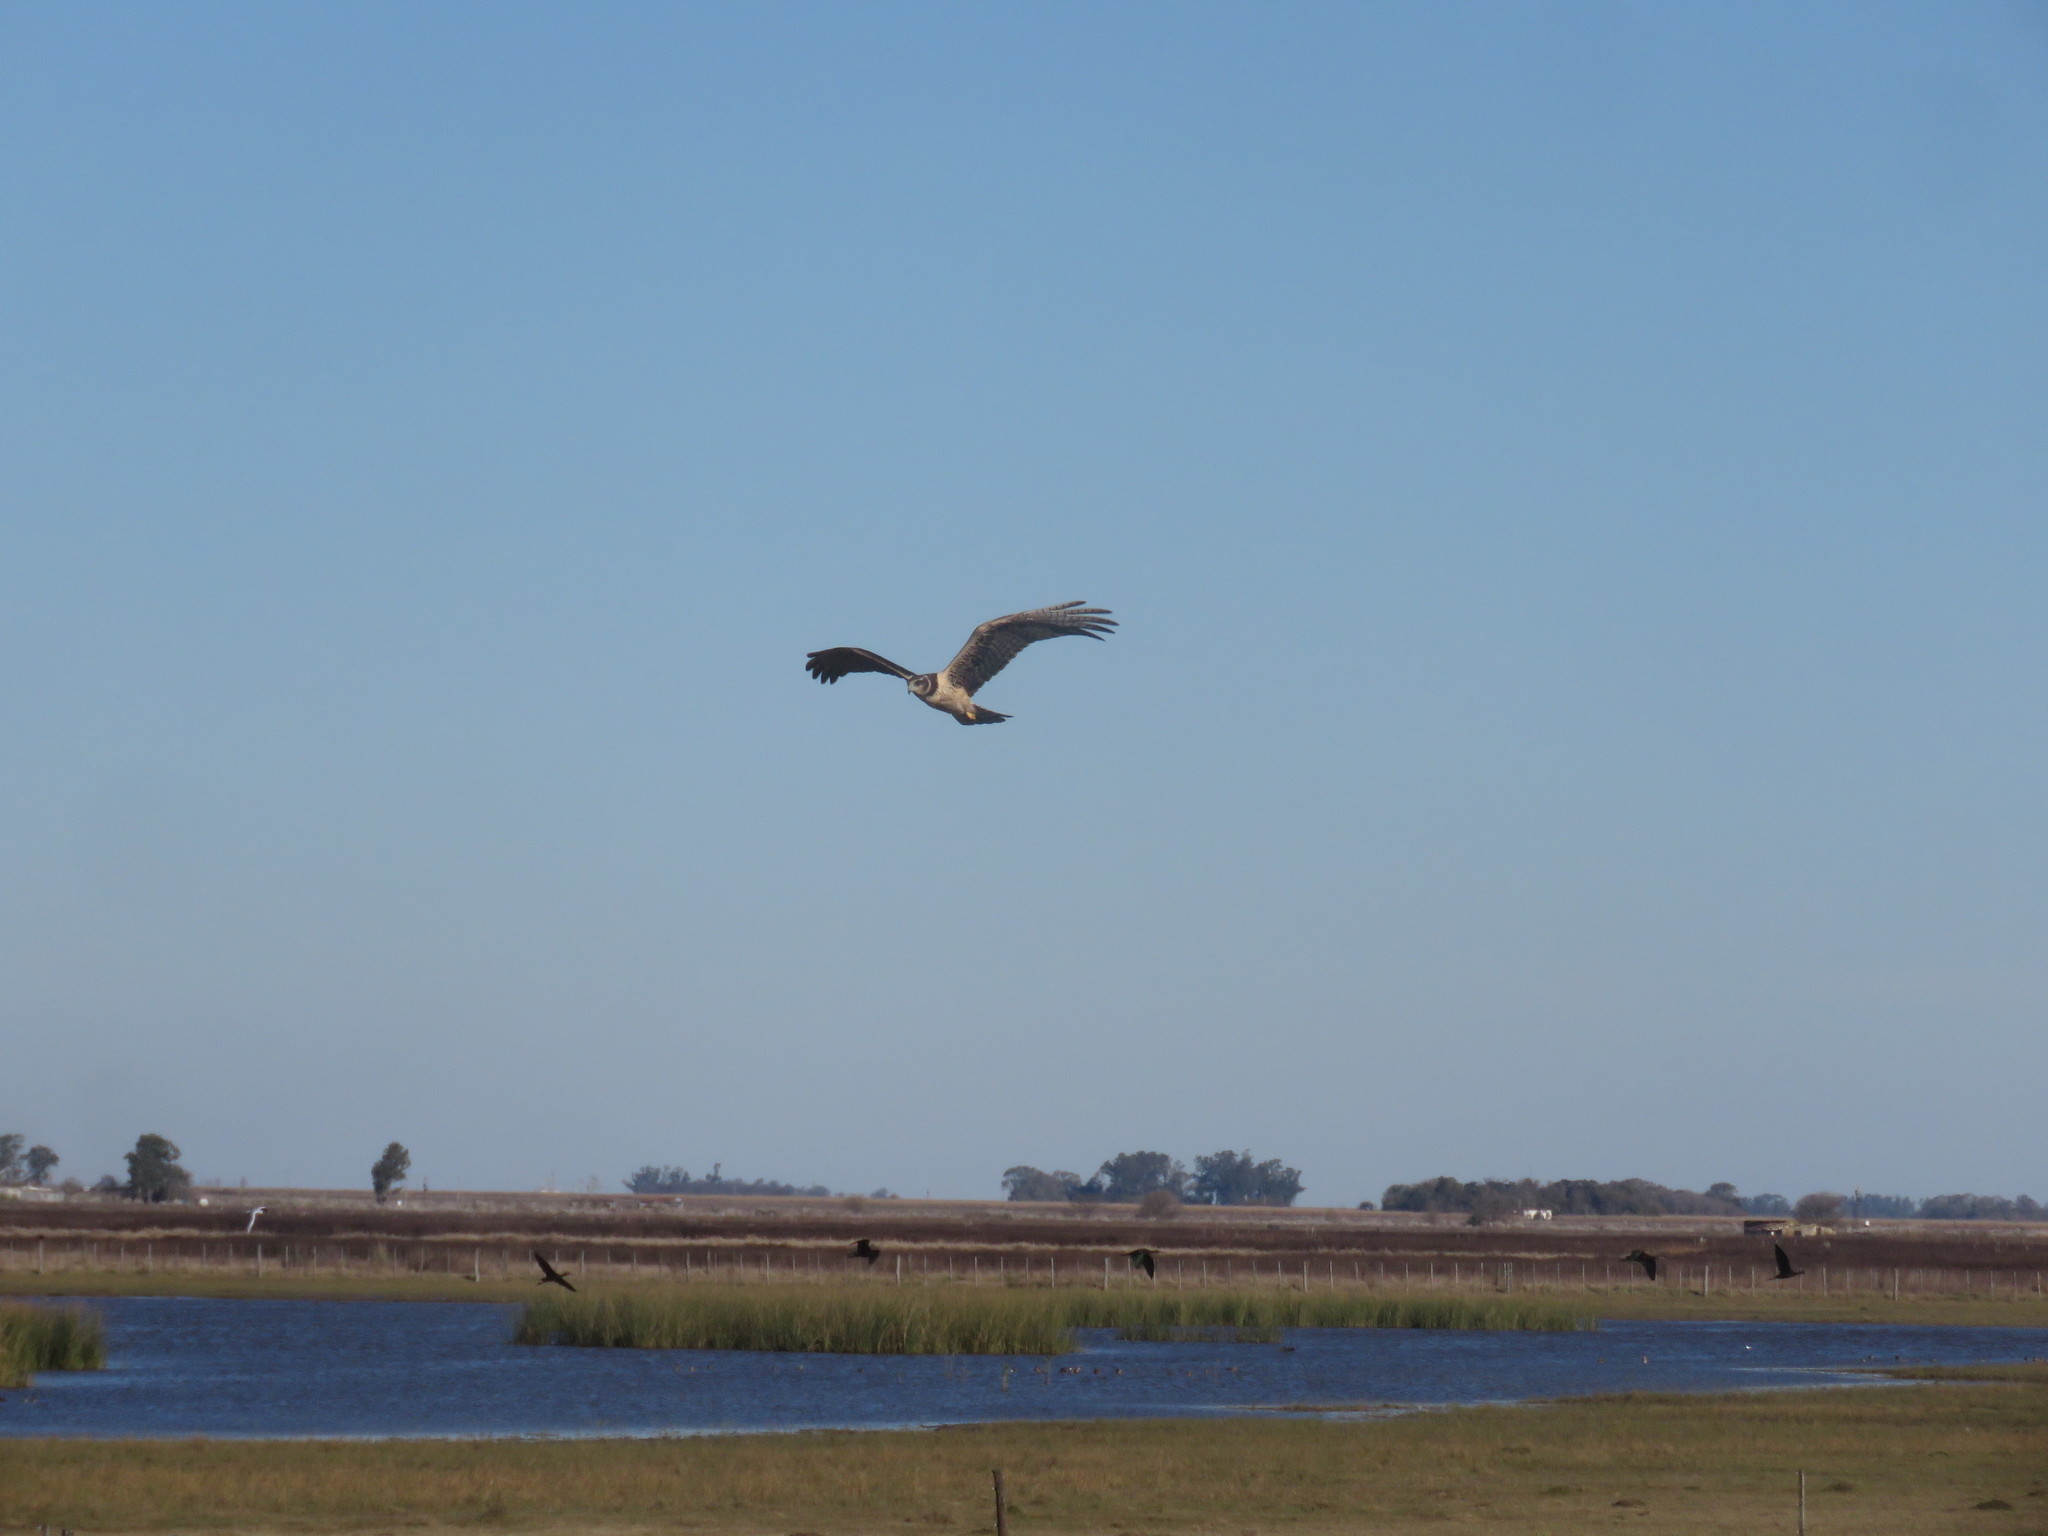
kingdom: Animalia
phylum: Chordata
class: Aves
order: Accipitriformes
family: Accipitridae
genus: Circus
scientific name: Circus buffoni
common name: Long-winged harrier
